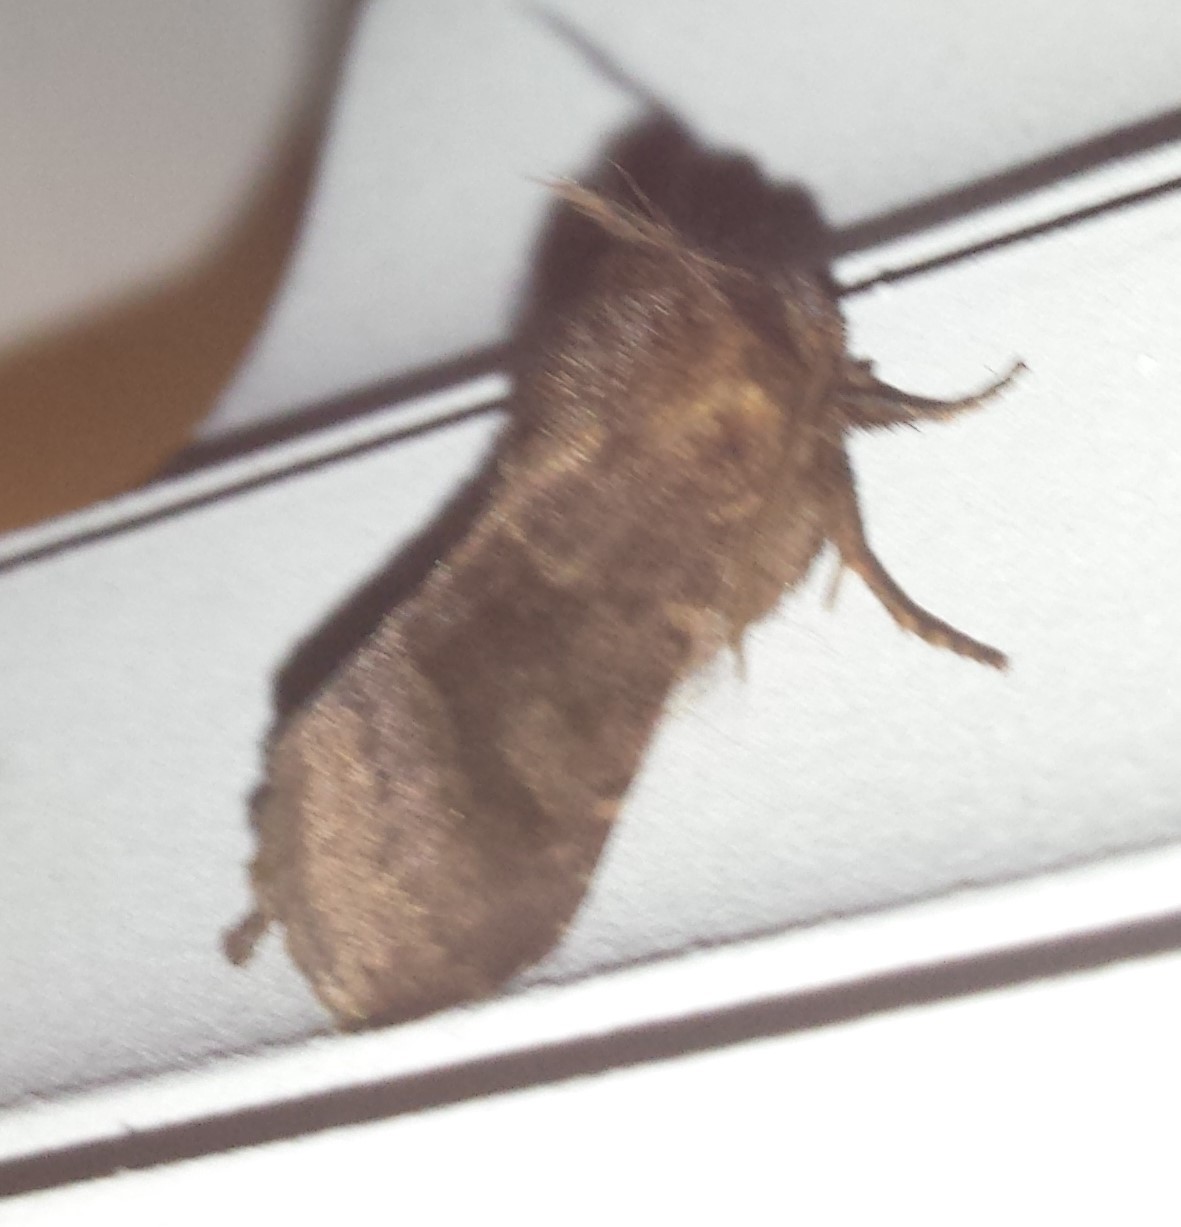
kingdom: Animalia
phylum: Arthropoda
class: Insecta
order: Lepidoptera
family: Noctuidae
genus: Nephelodes
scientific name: Nephelodes minians
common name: Bronzed cutworm
